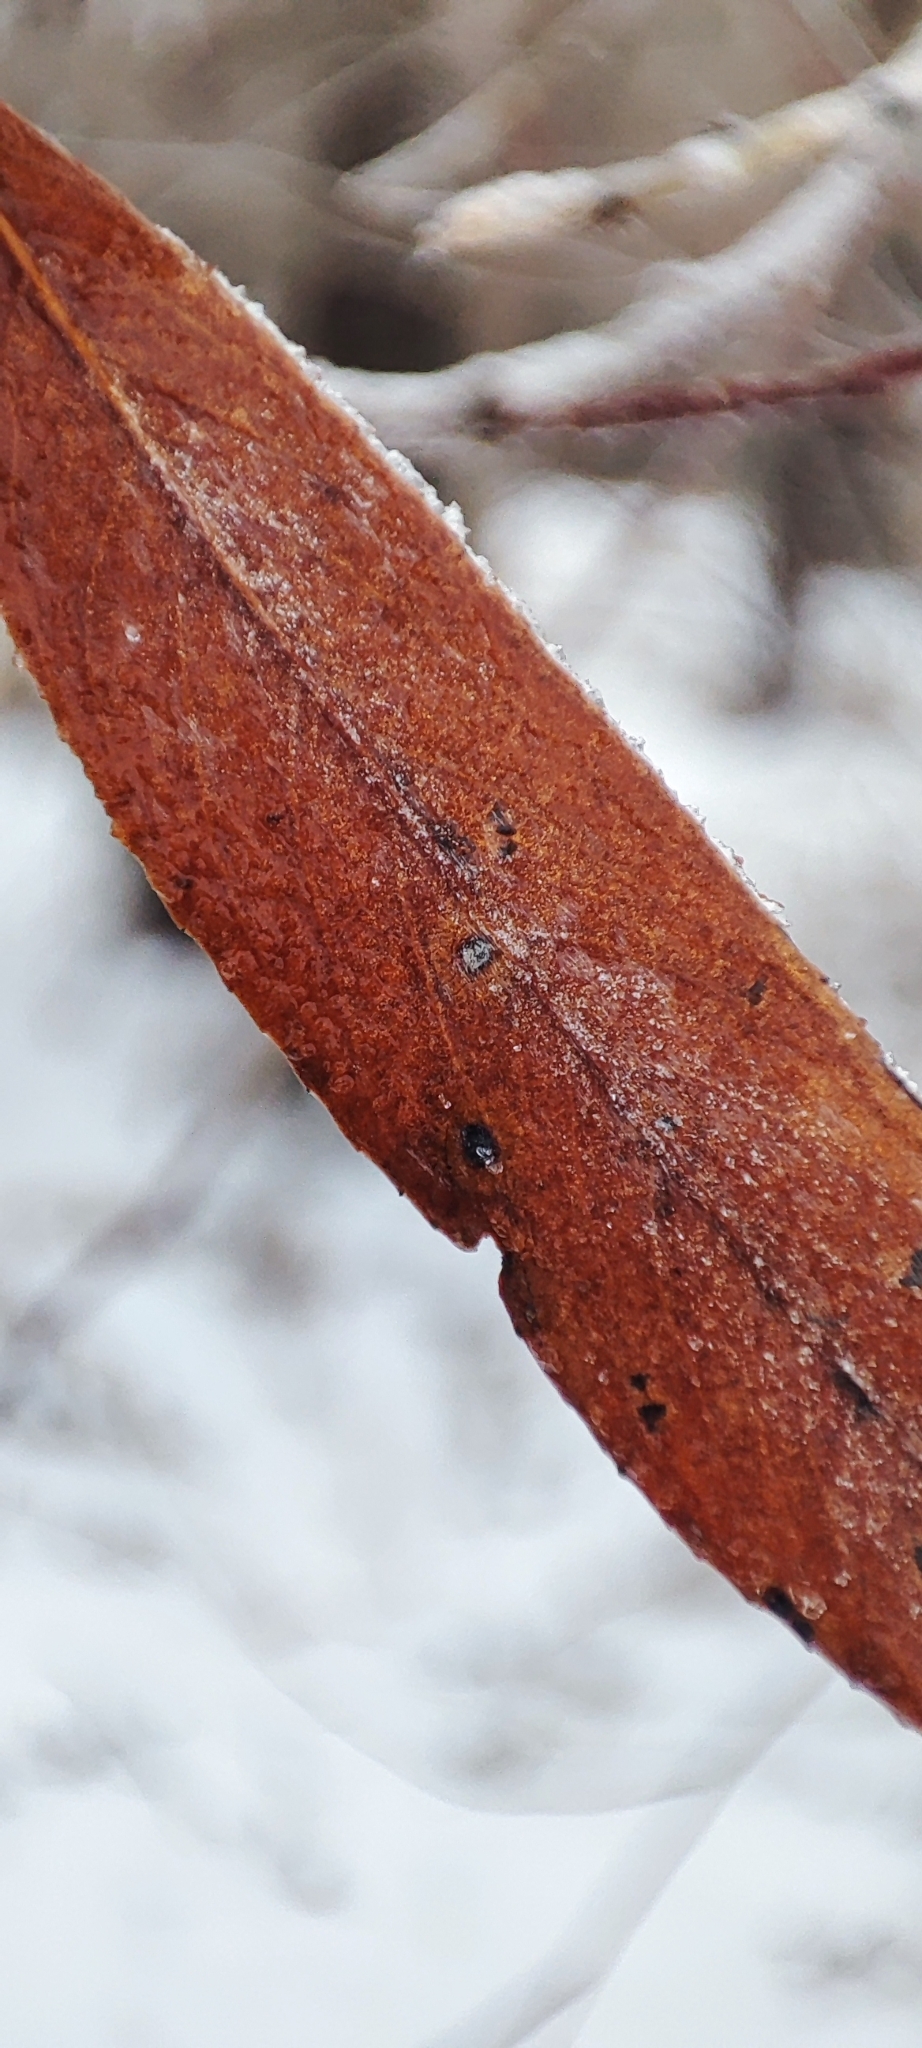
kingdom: Plantae
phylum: Tracheophyta
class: Magnoliopsida
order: Malpighiales
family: Salicaceae
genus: Salix
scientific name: Salix alba
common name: White willow
